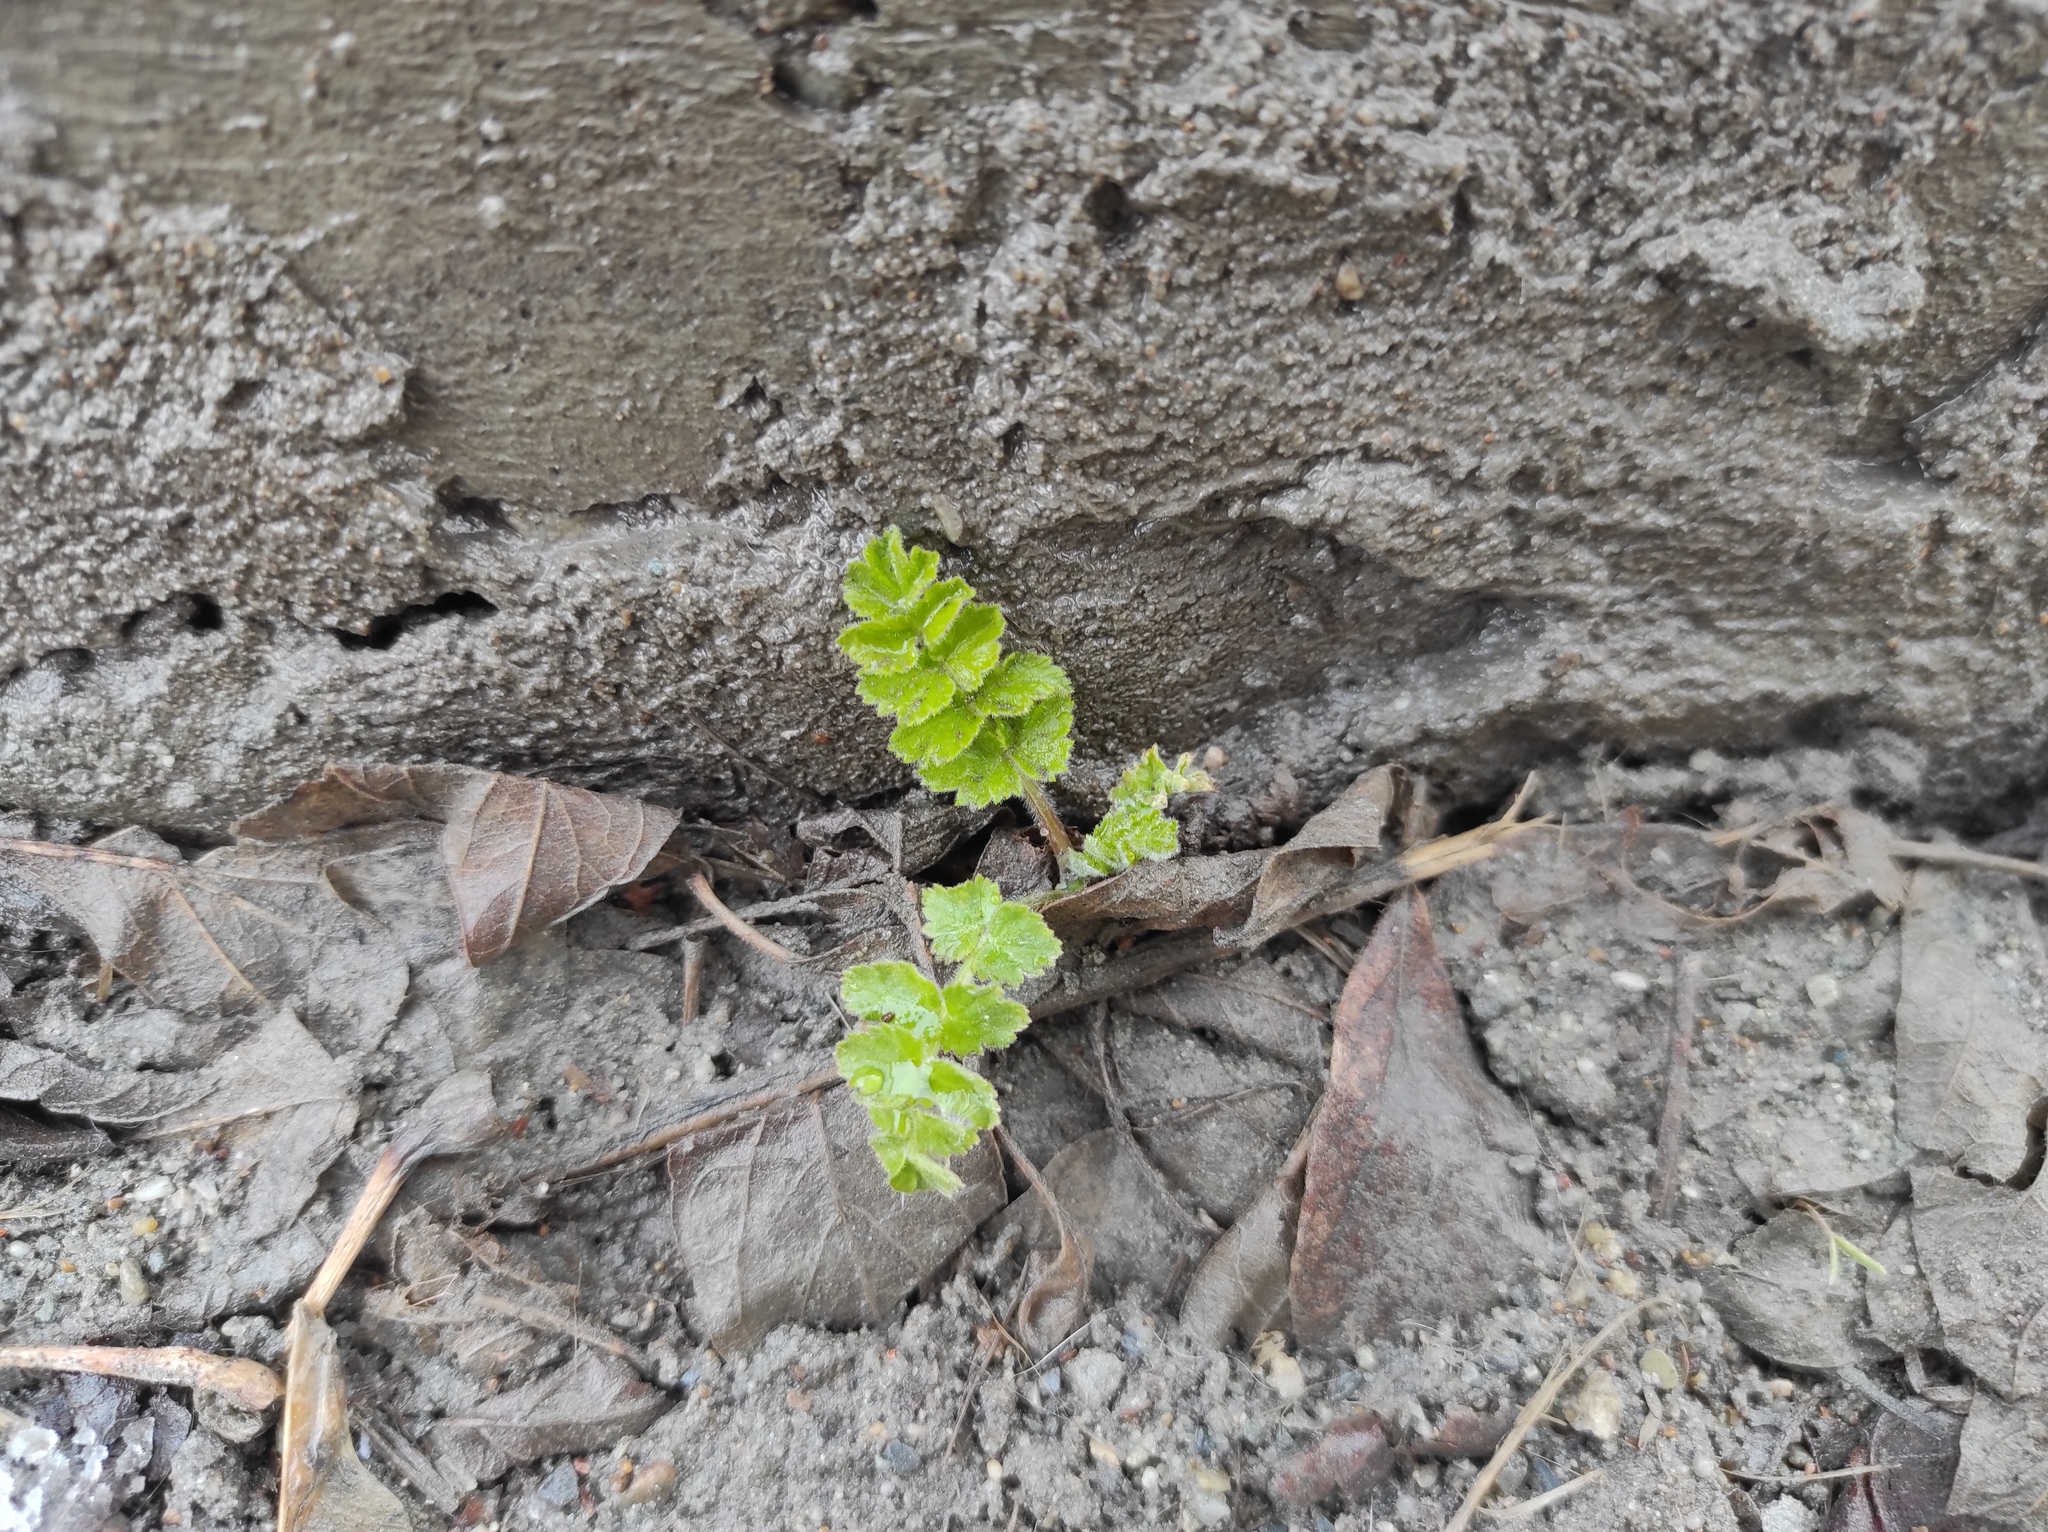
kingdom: Plantae
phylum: Tracheophyta
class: Magnoliopsida
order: Apiales
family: Apiaceae
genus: Pimpinella
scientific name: Pimpinella saxifraga
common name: Burnet-saxifrage
